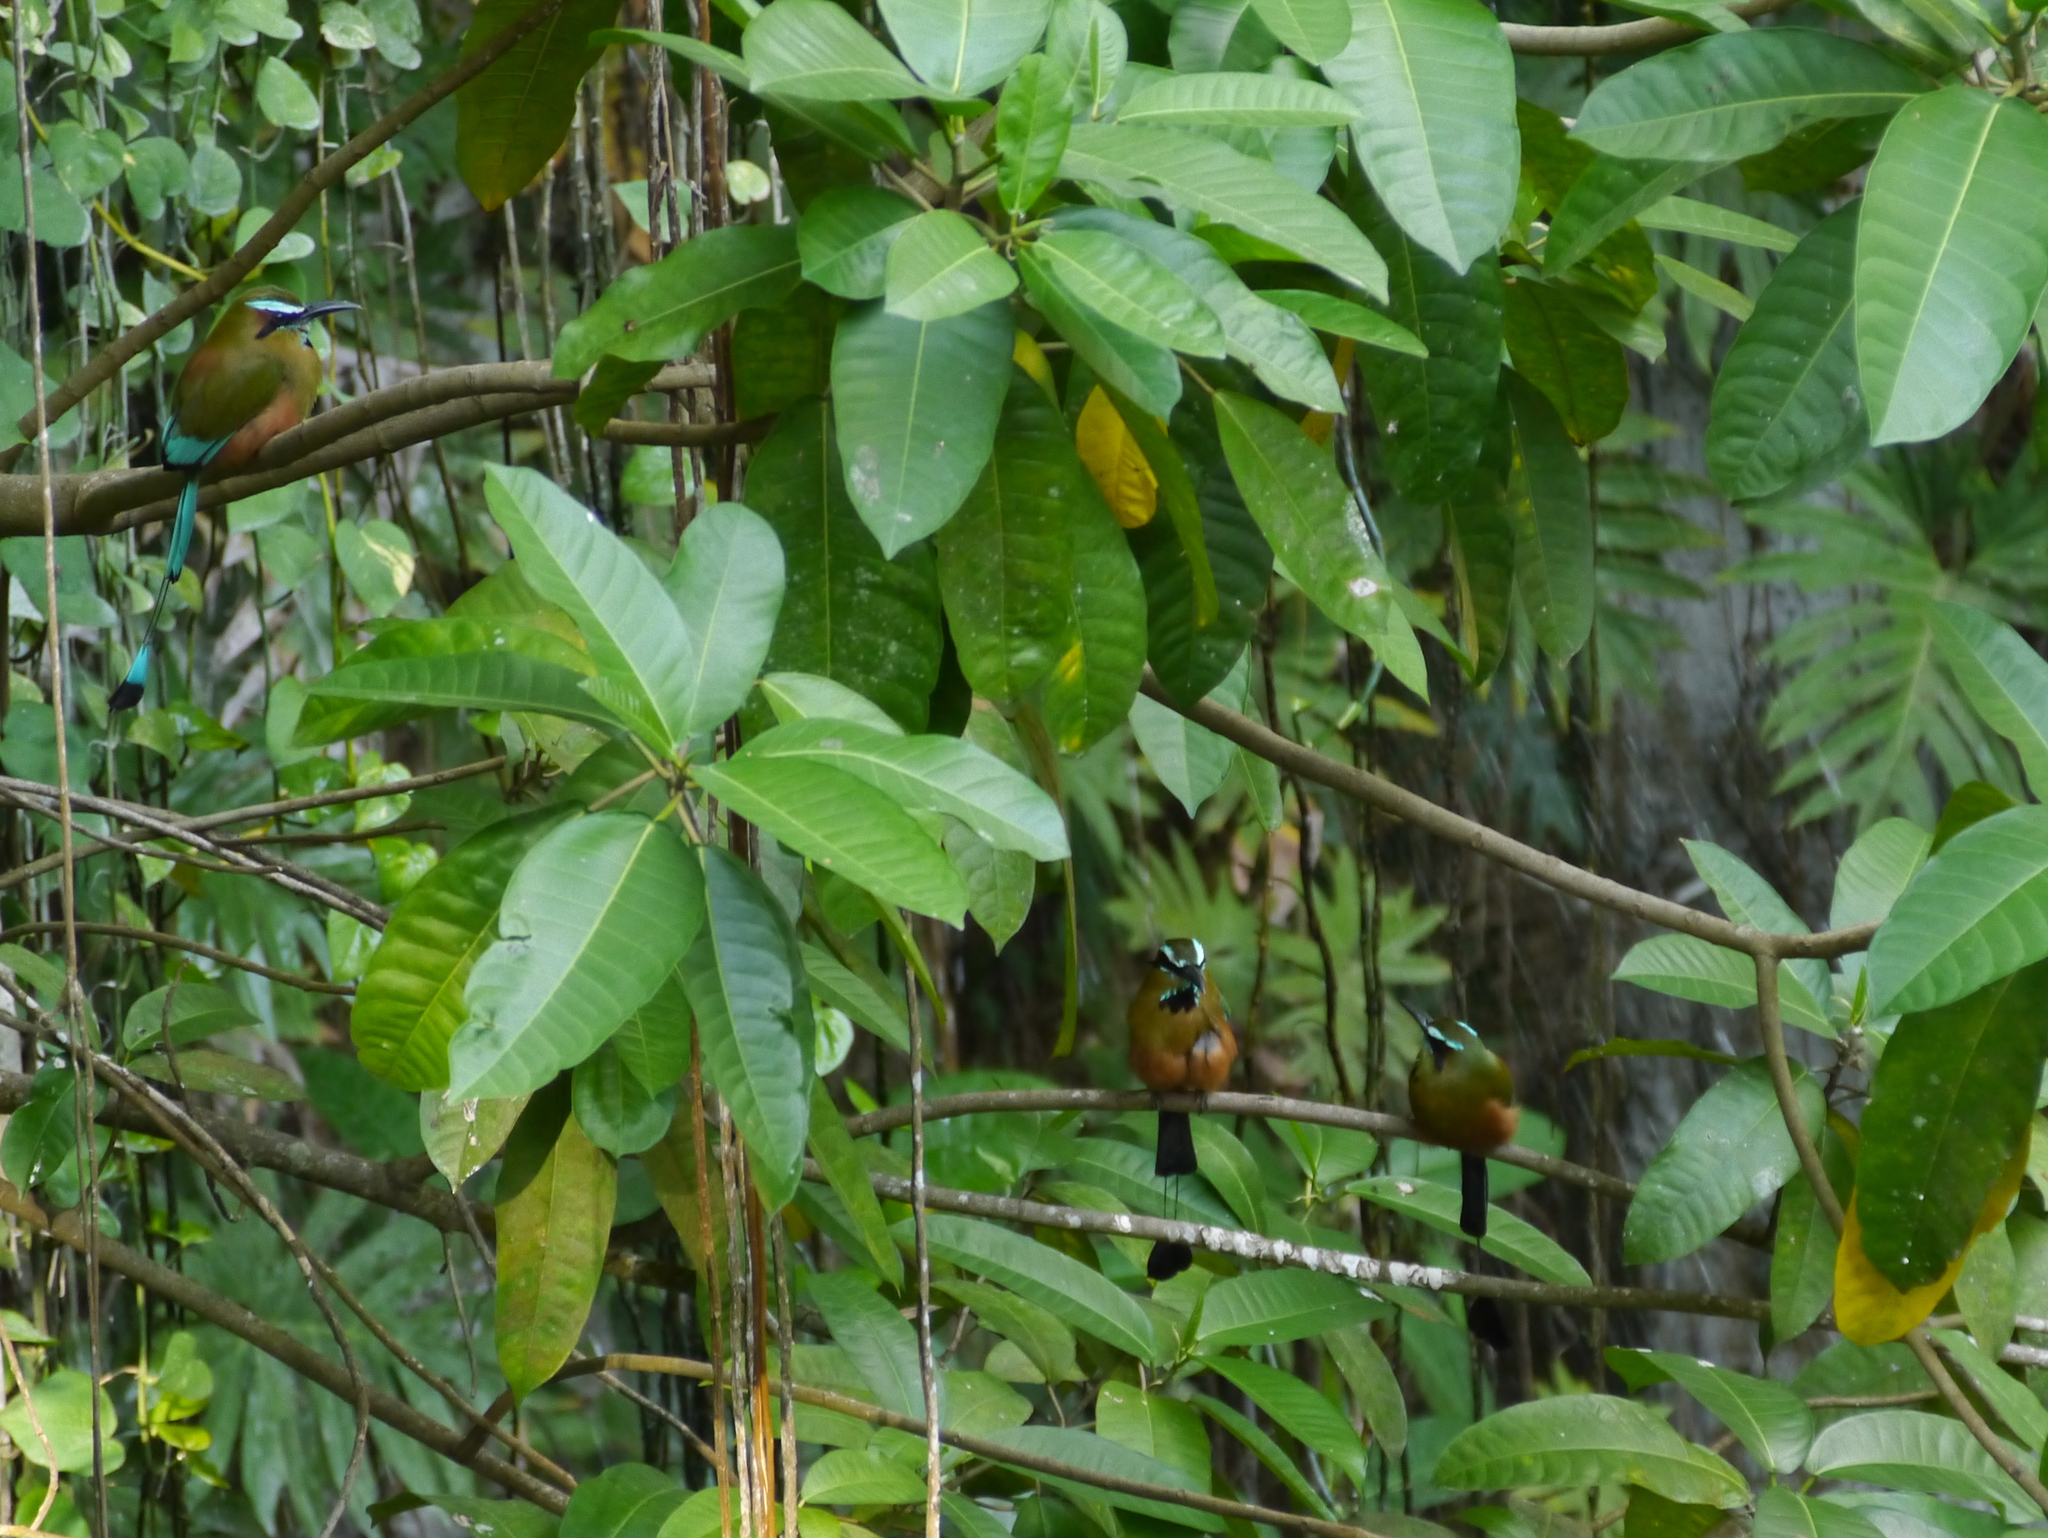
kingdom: Animalia
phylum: Chordata
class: Aves
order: Coraciiformes
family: Momotidae
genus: Eumomota
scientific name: Eumomota superciliosa
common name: Turquoise-browed motmot
